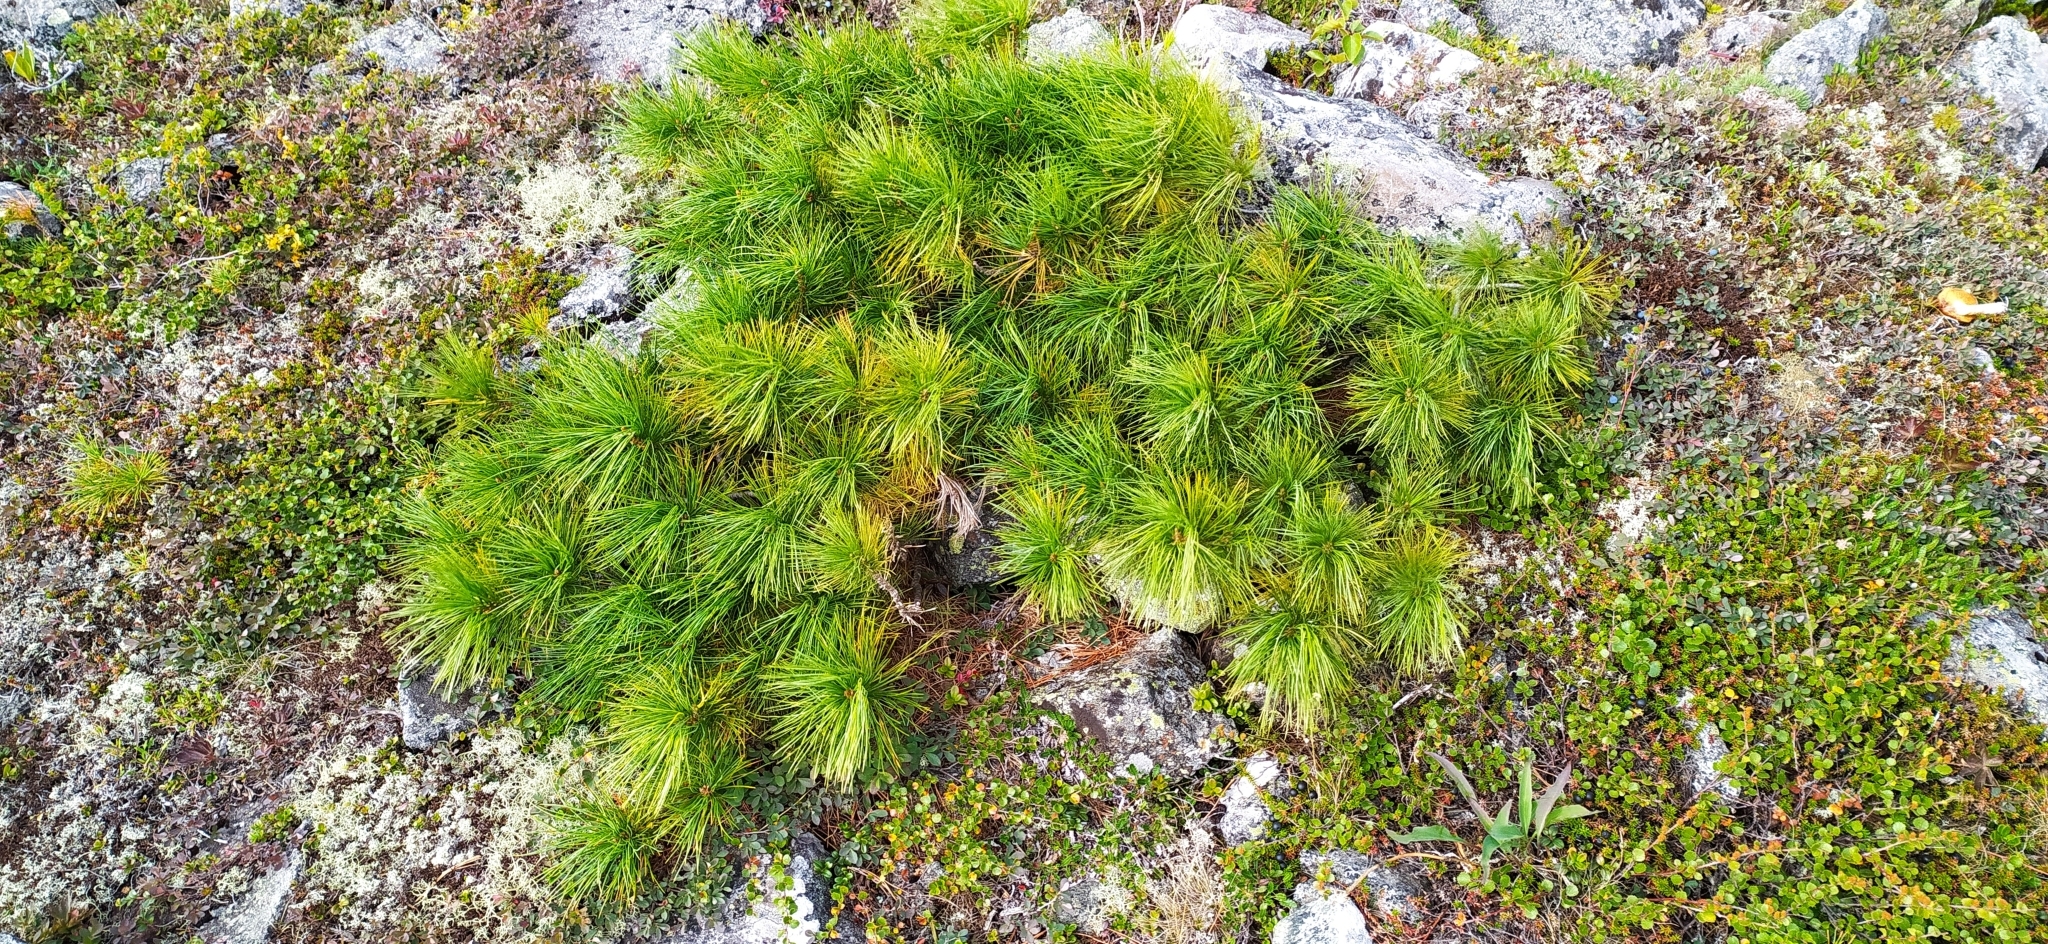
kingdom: Plantae
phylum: Tracheophyta
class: Pinopsida
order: Pinales
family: Pinaceae
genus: Pinus
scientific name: Pinus sibirica
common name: Siberian pine
